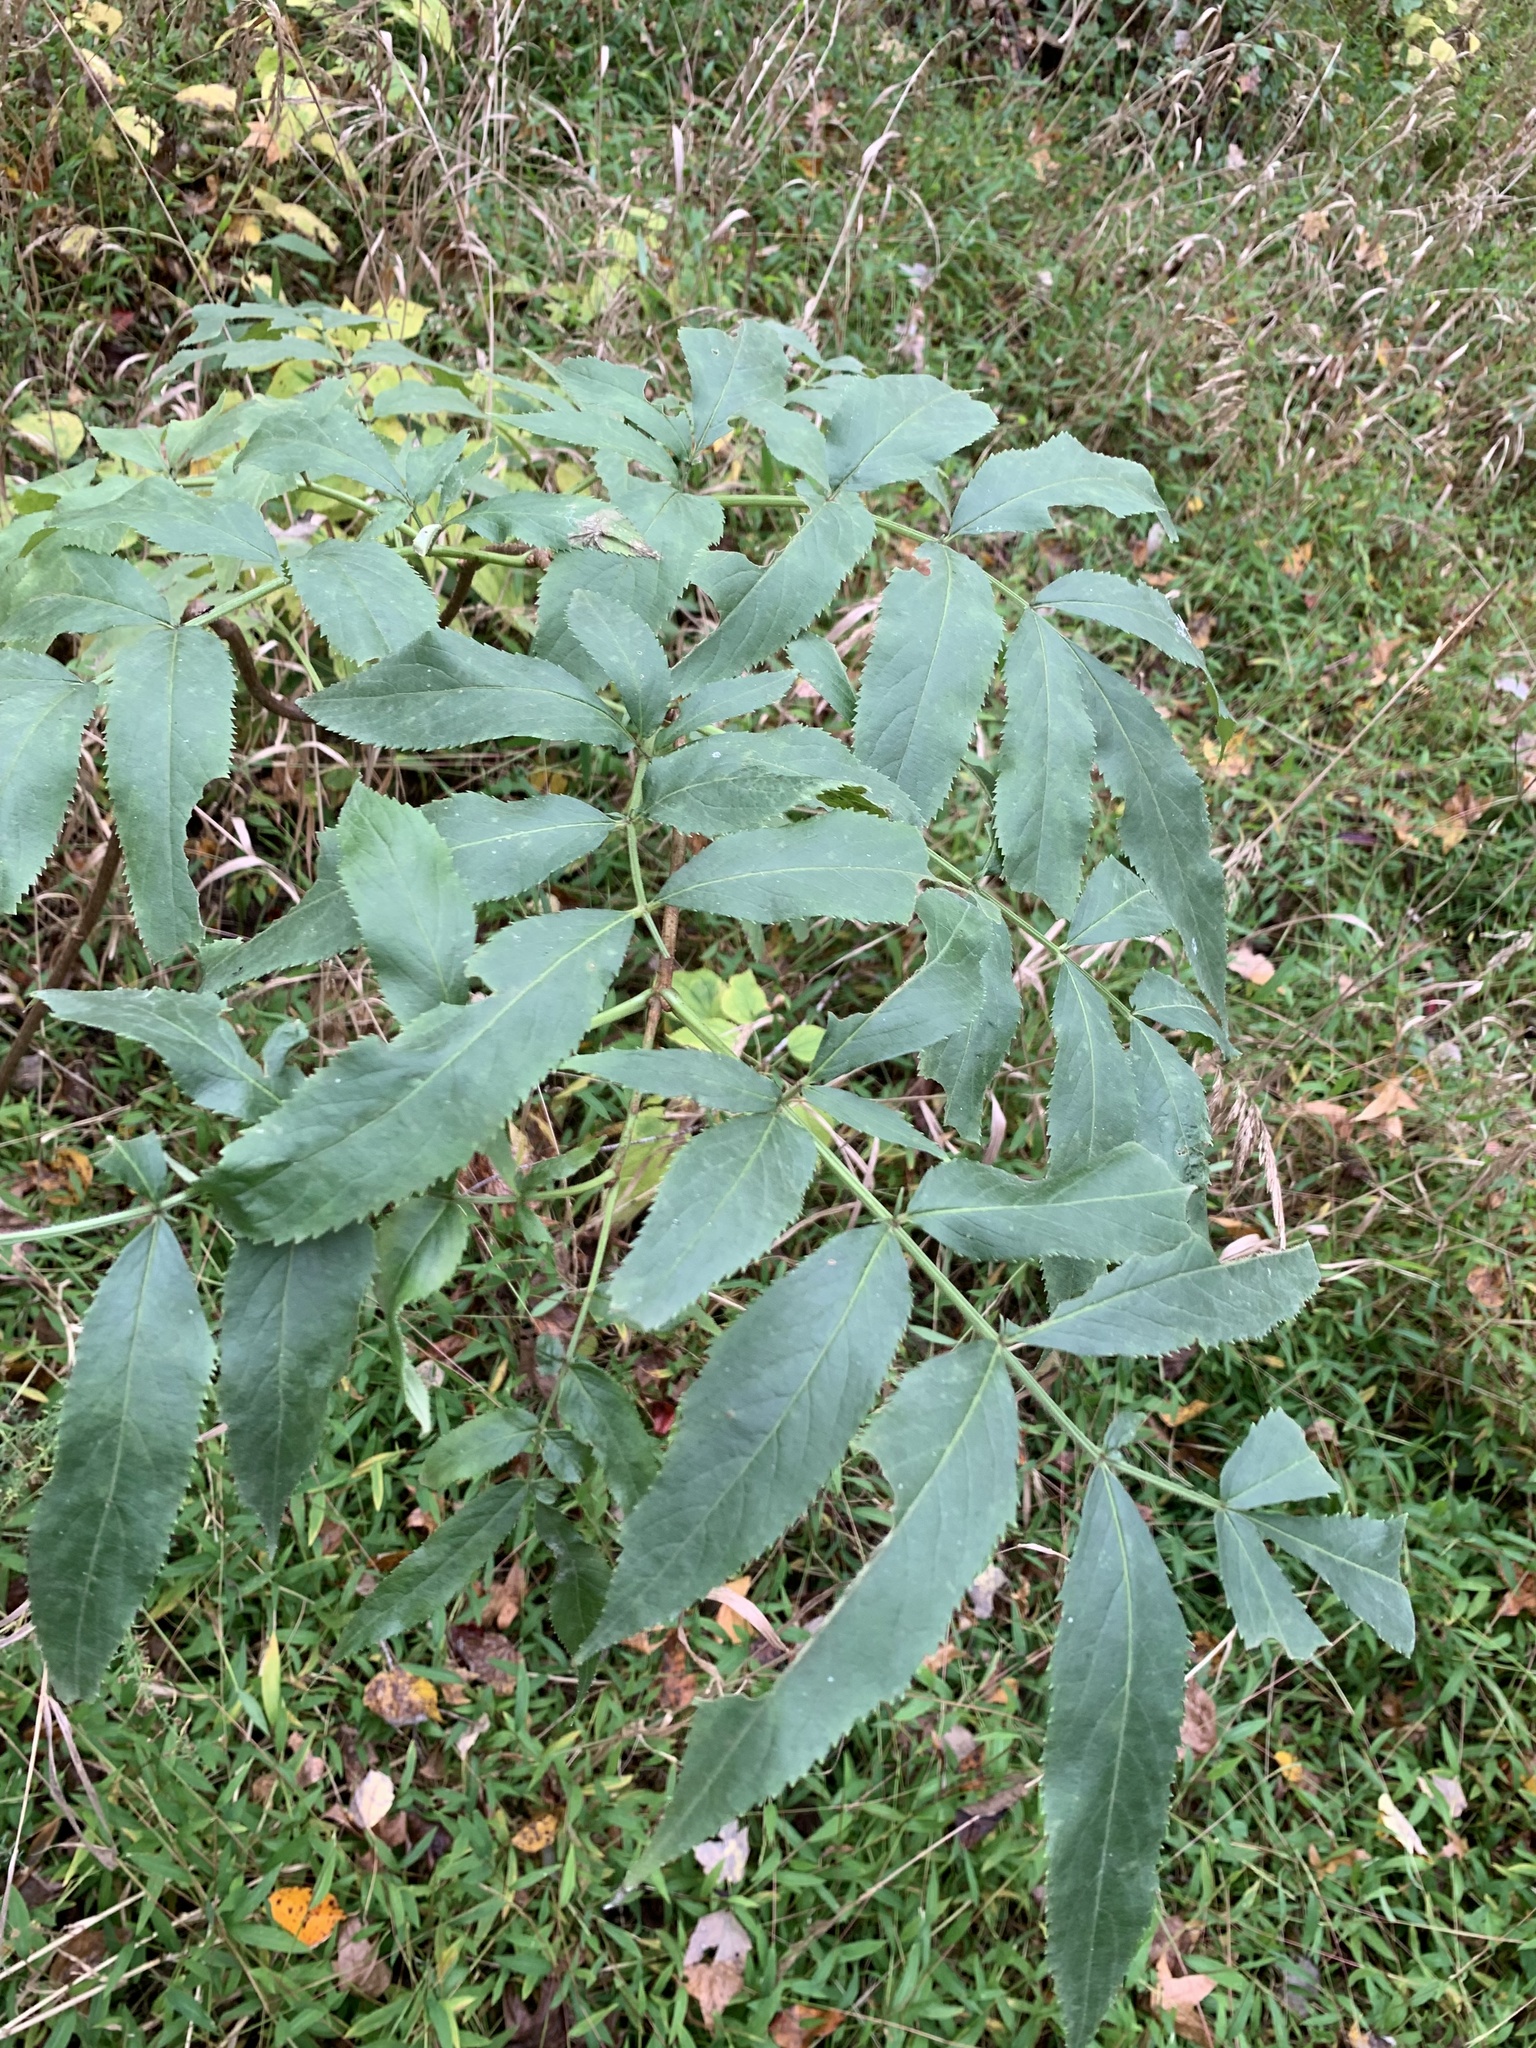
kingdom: Plantae
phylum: Tracheophyta
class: Magnoliopsida
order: Dipsacales
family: Viburnaceae
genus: Sambucus
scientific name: Sambucus canadensis
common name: American elder
